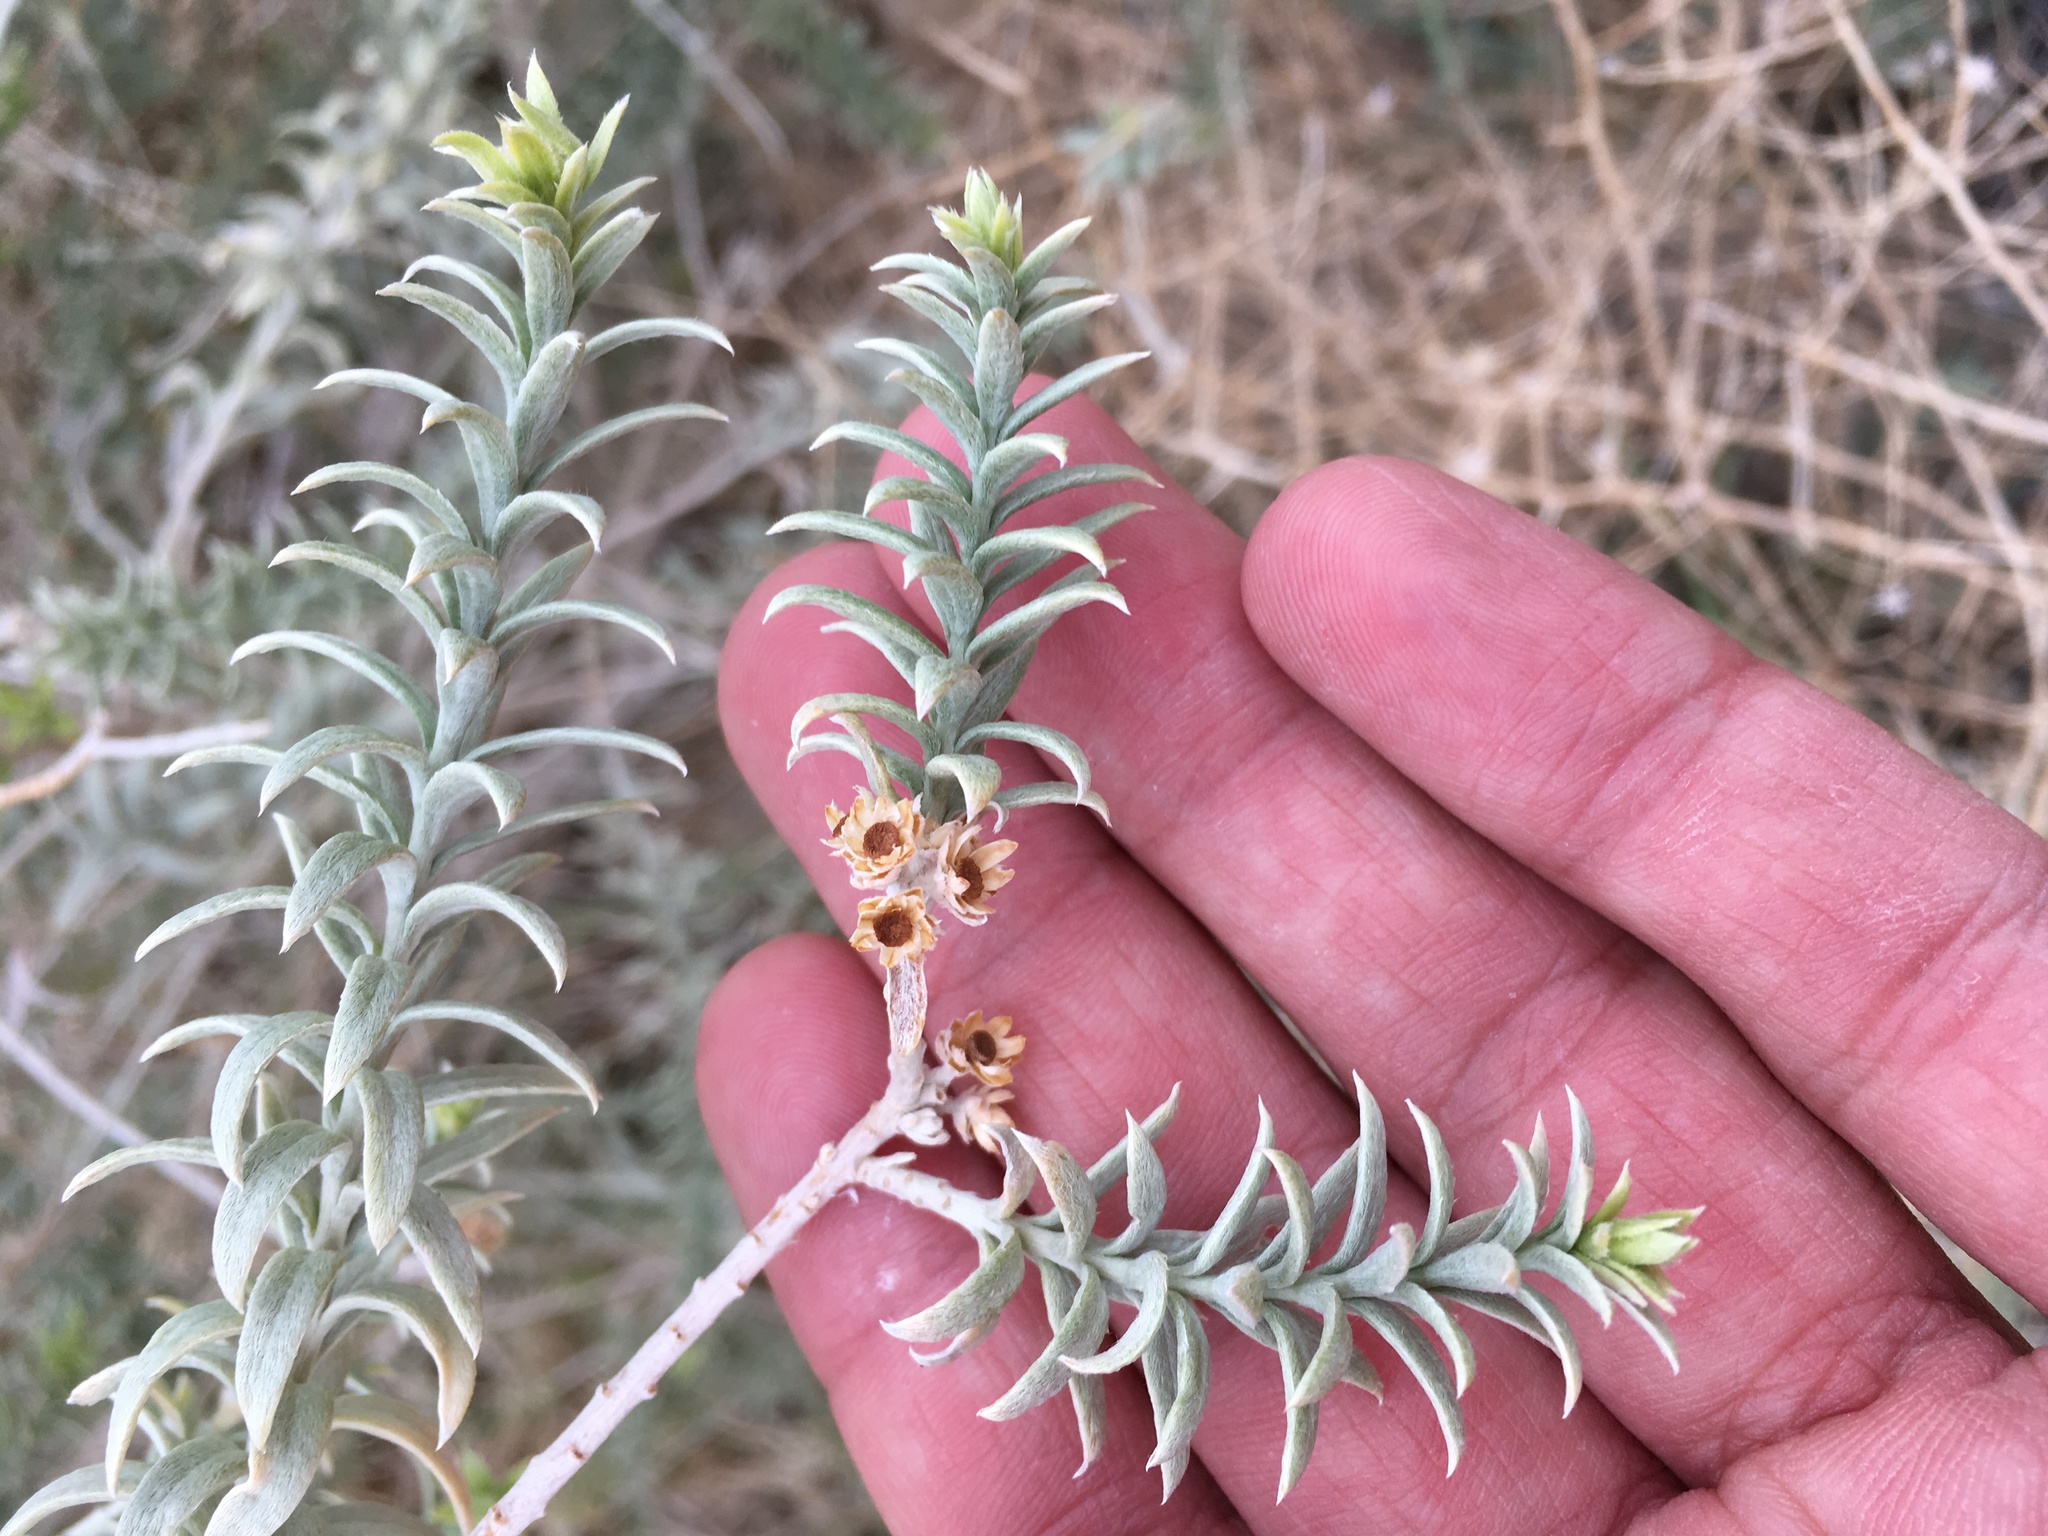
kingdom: Plantae
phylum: Tracheophyta
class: Magnoliopsida
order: Asterales
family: Asteraceae
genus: Pluchea
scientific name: Pluchea sericea
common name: Arrow-weed
